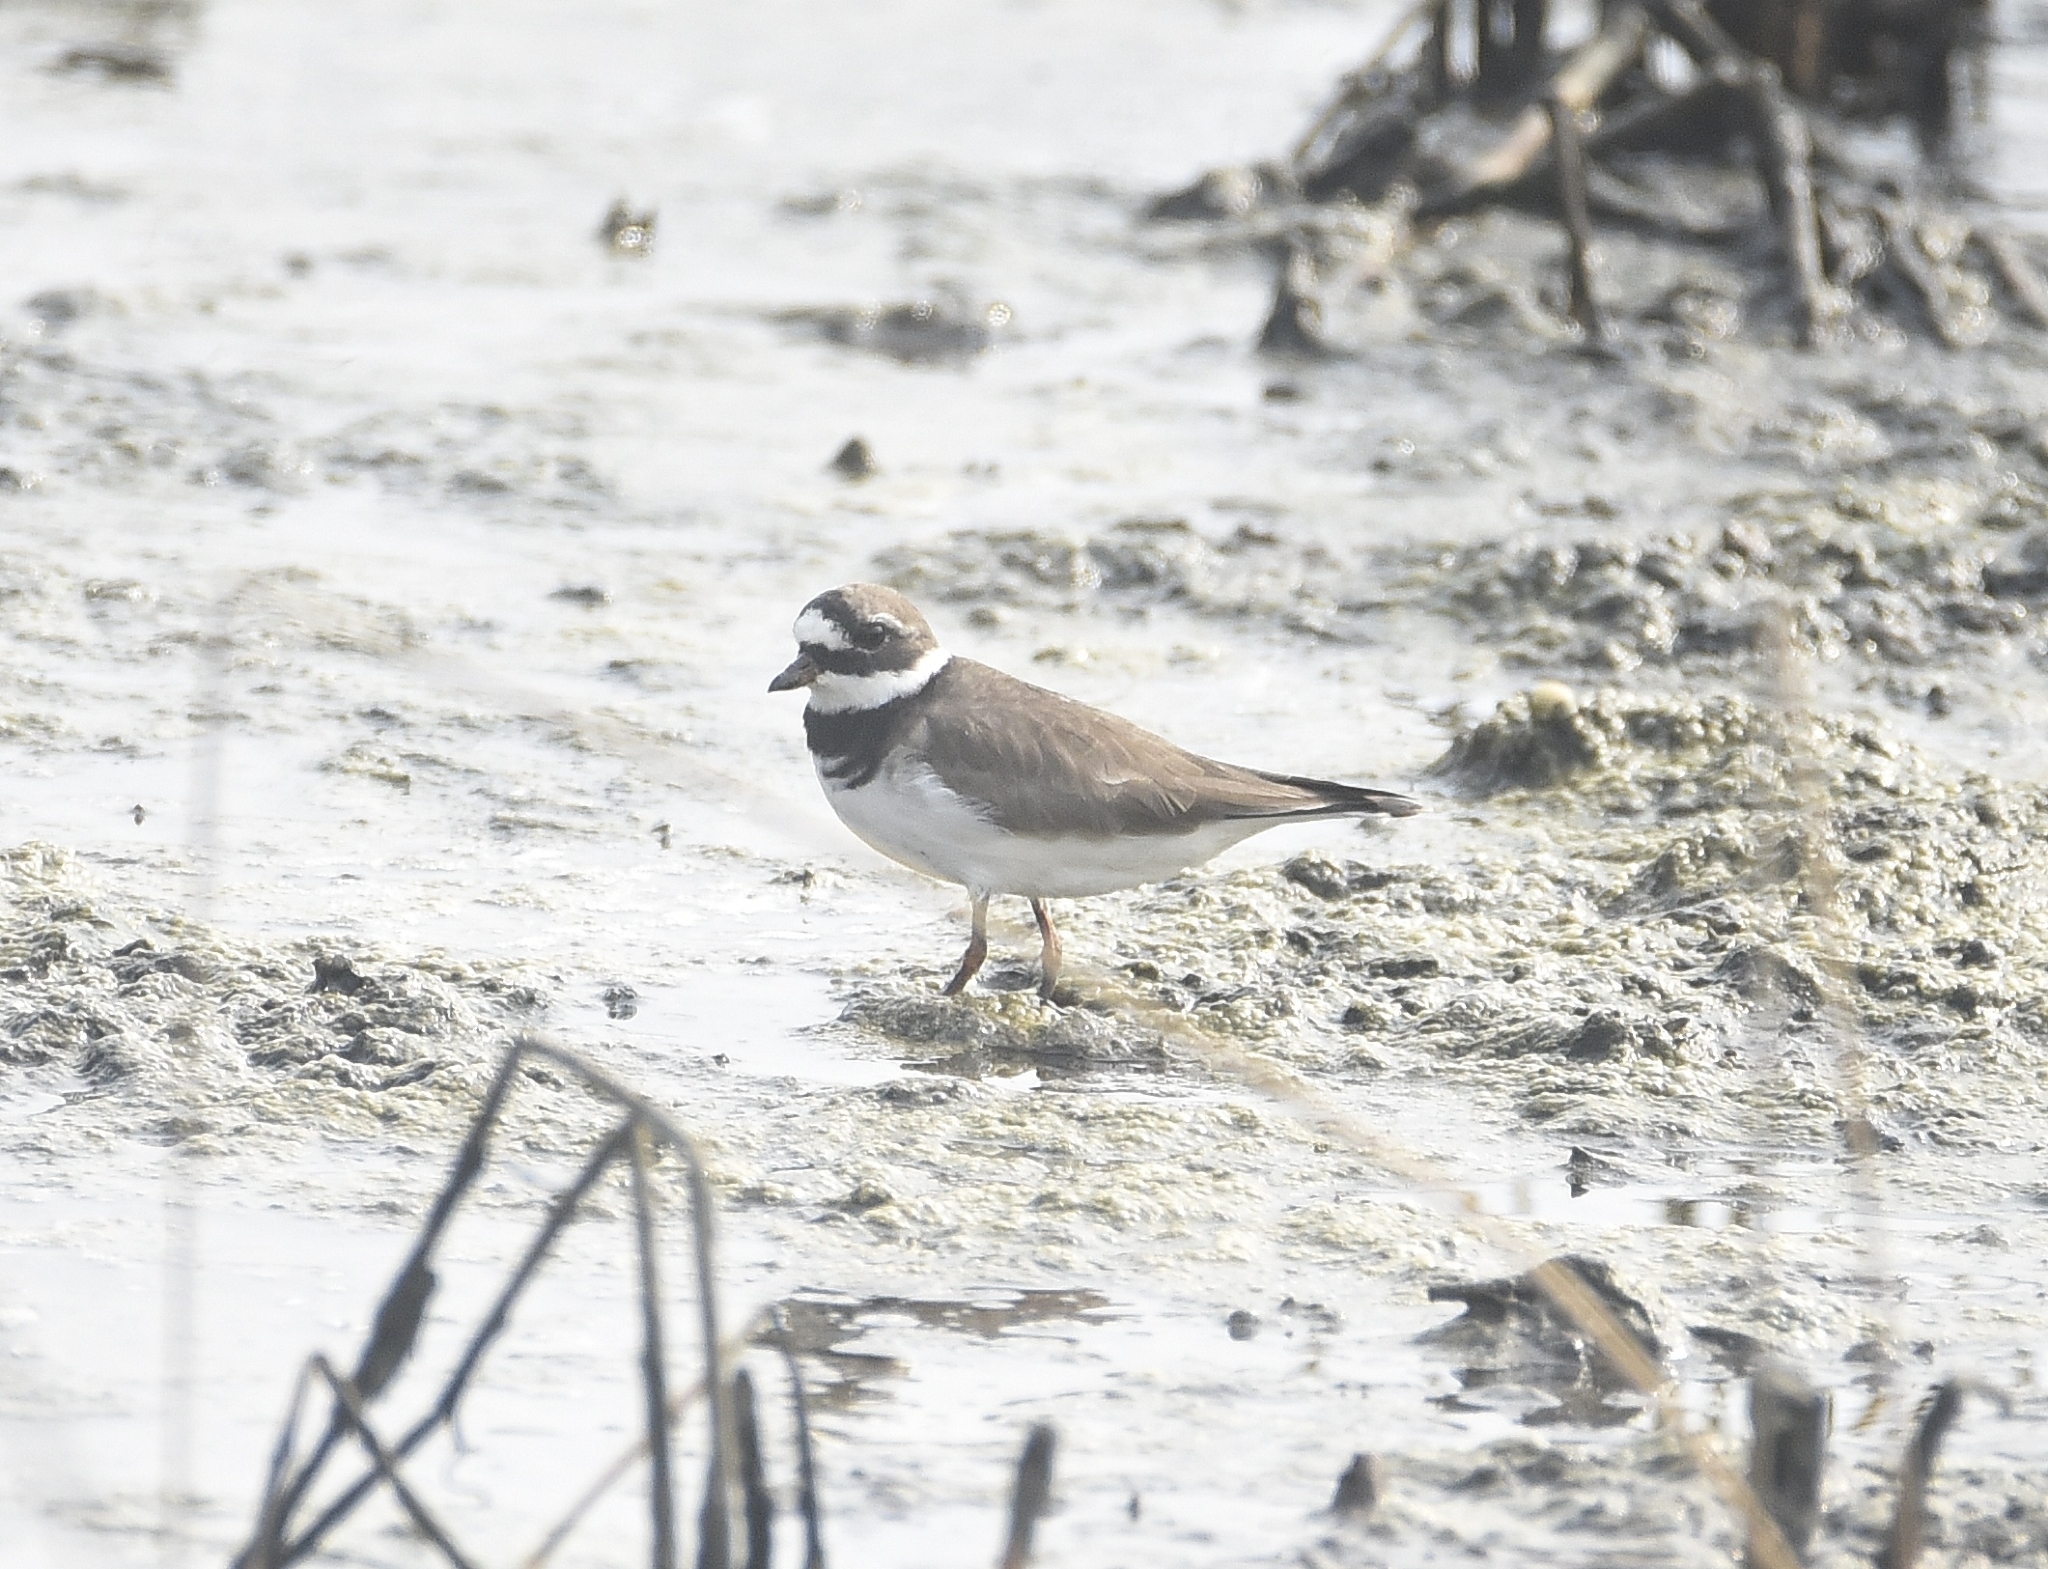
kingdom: Animalia
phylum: Chordata
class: Aves
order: Charadriiformes
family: Charadriidae
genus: Charadrius
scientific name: Charadrius hiaticula
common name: Common ringed plover
